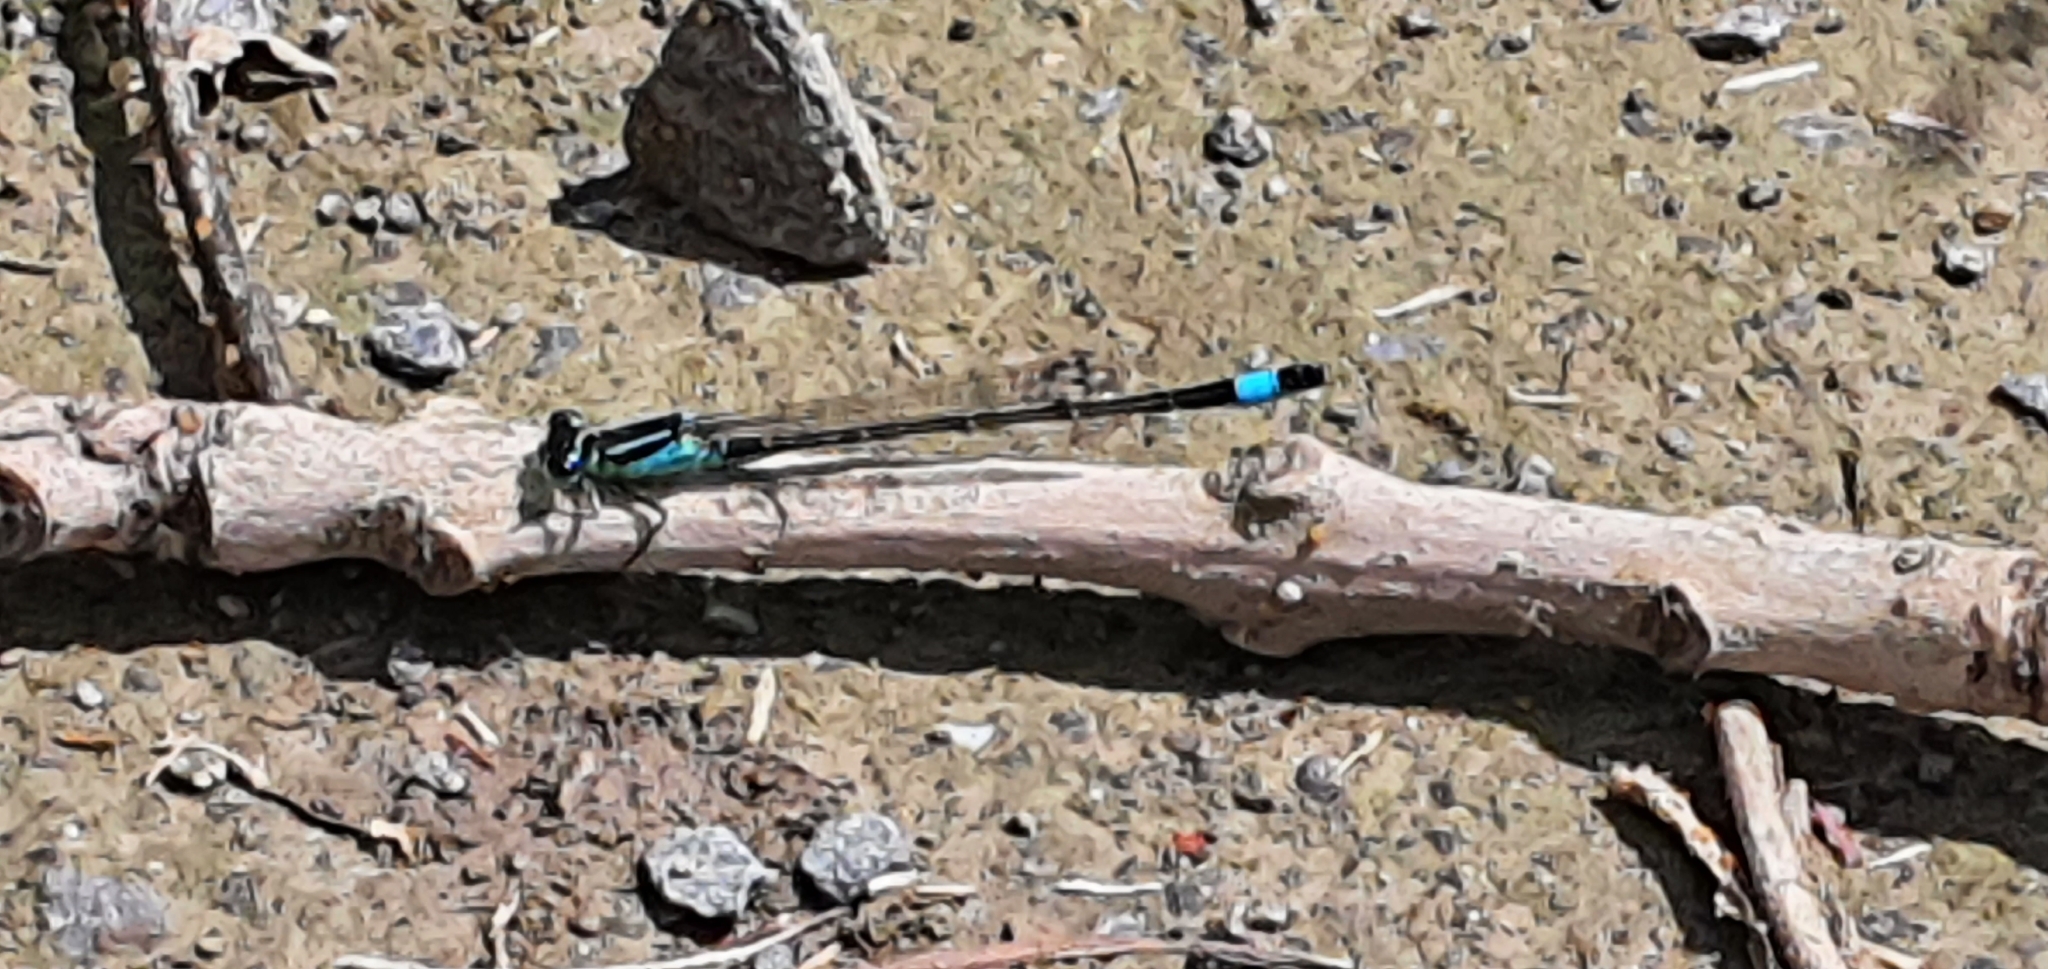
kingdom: Animalia
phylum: Arthropoda
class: Insecta
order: Odonata
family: Coenagrionidae
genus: Ischnura
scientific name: Ischnura elegans
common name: Blue-tailed damselfly
